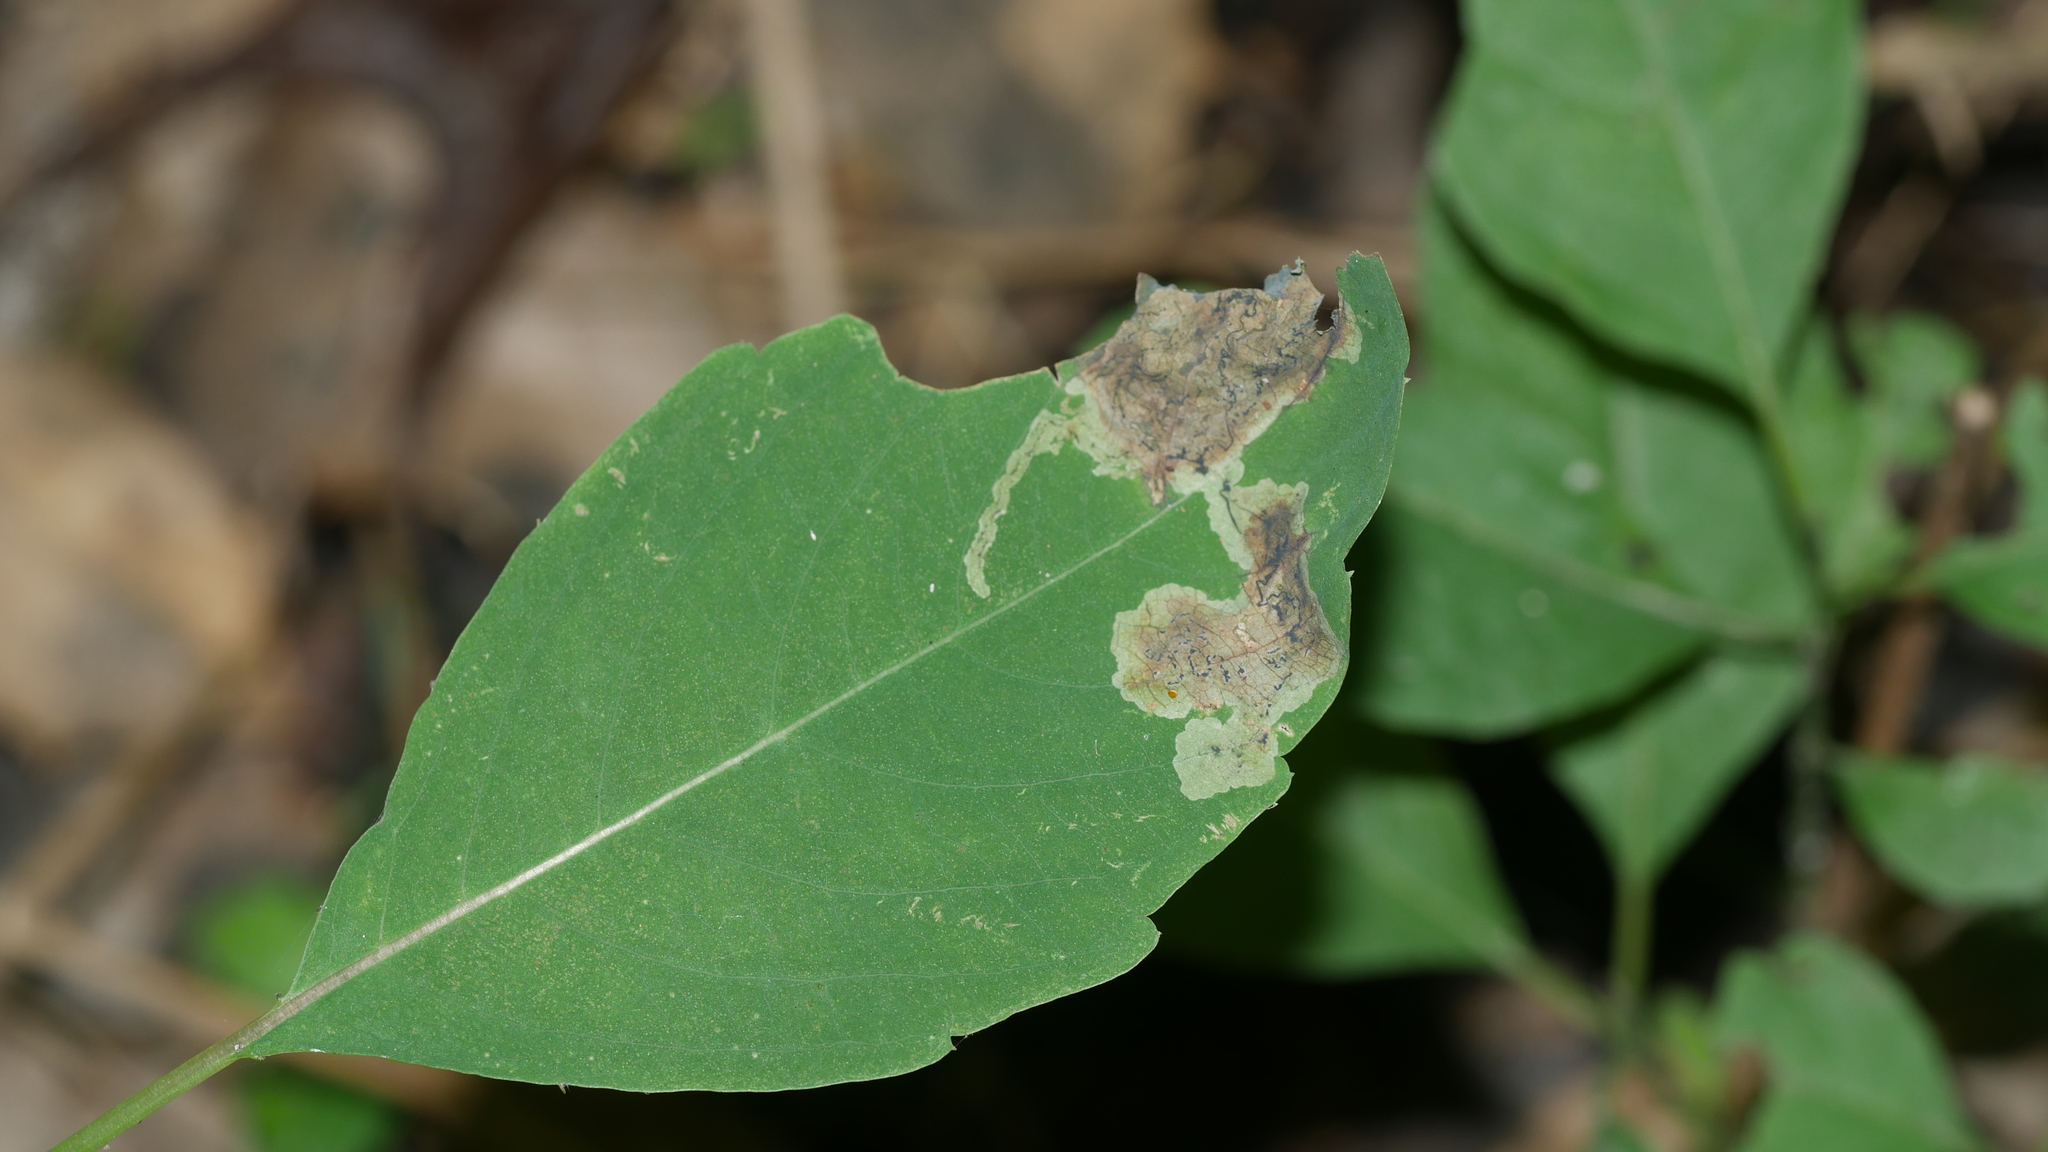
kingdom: Animalia
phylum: Arthropoda
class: Insecta
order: Diptera
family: Agromyzidae
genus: Phytoliriomyza
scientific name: Phytoliriomyza melampyga
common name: Jewelweed leaf-miner fly
